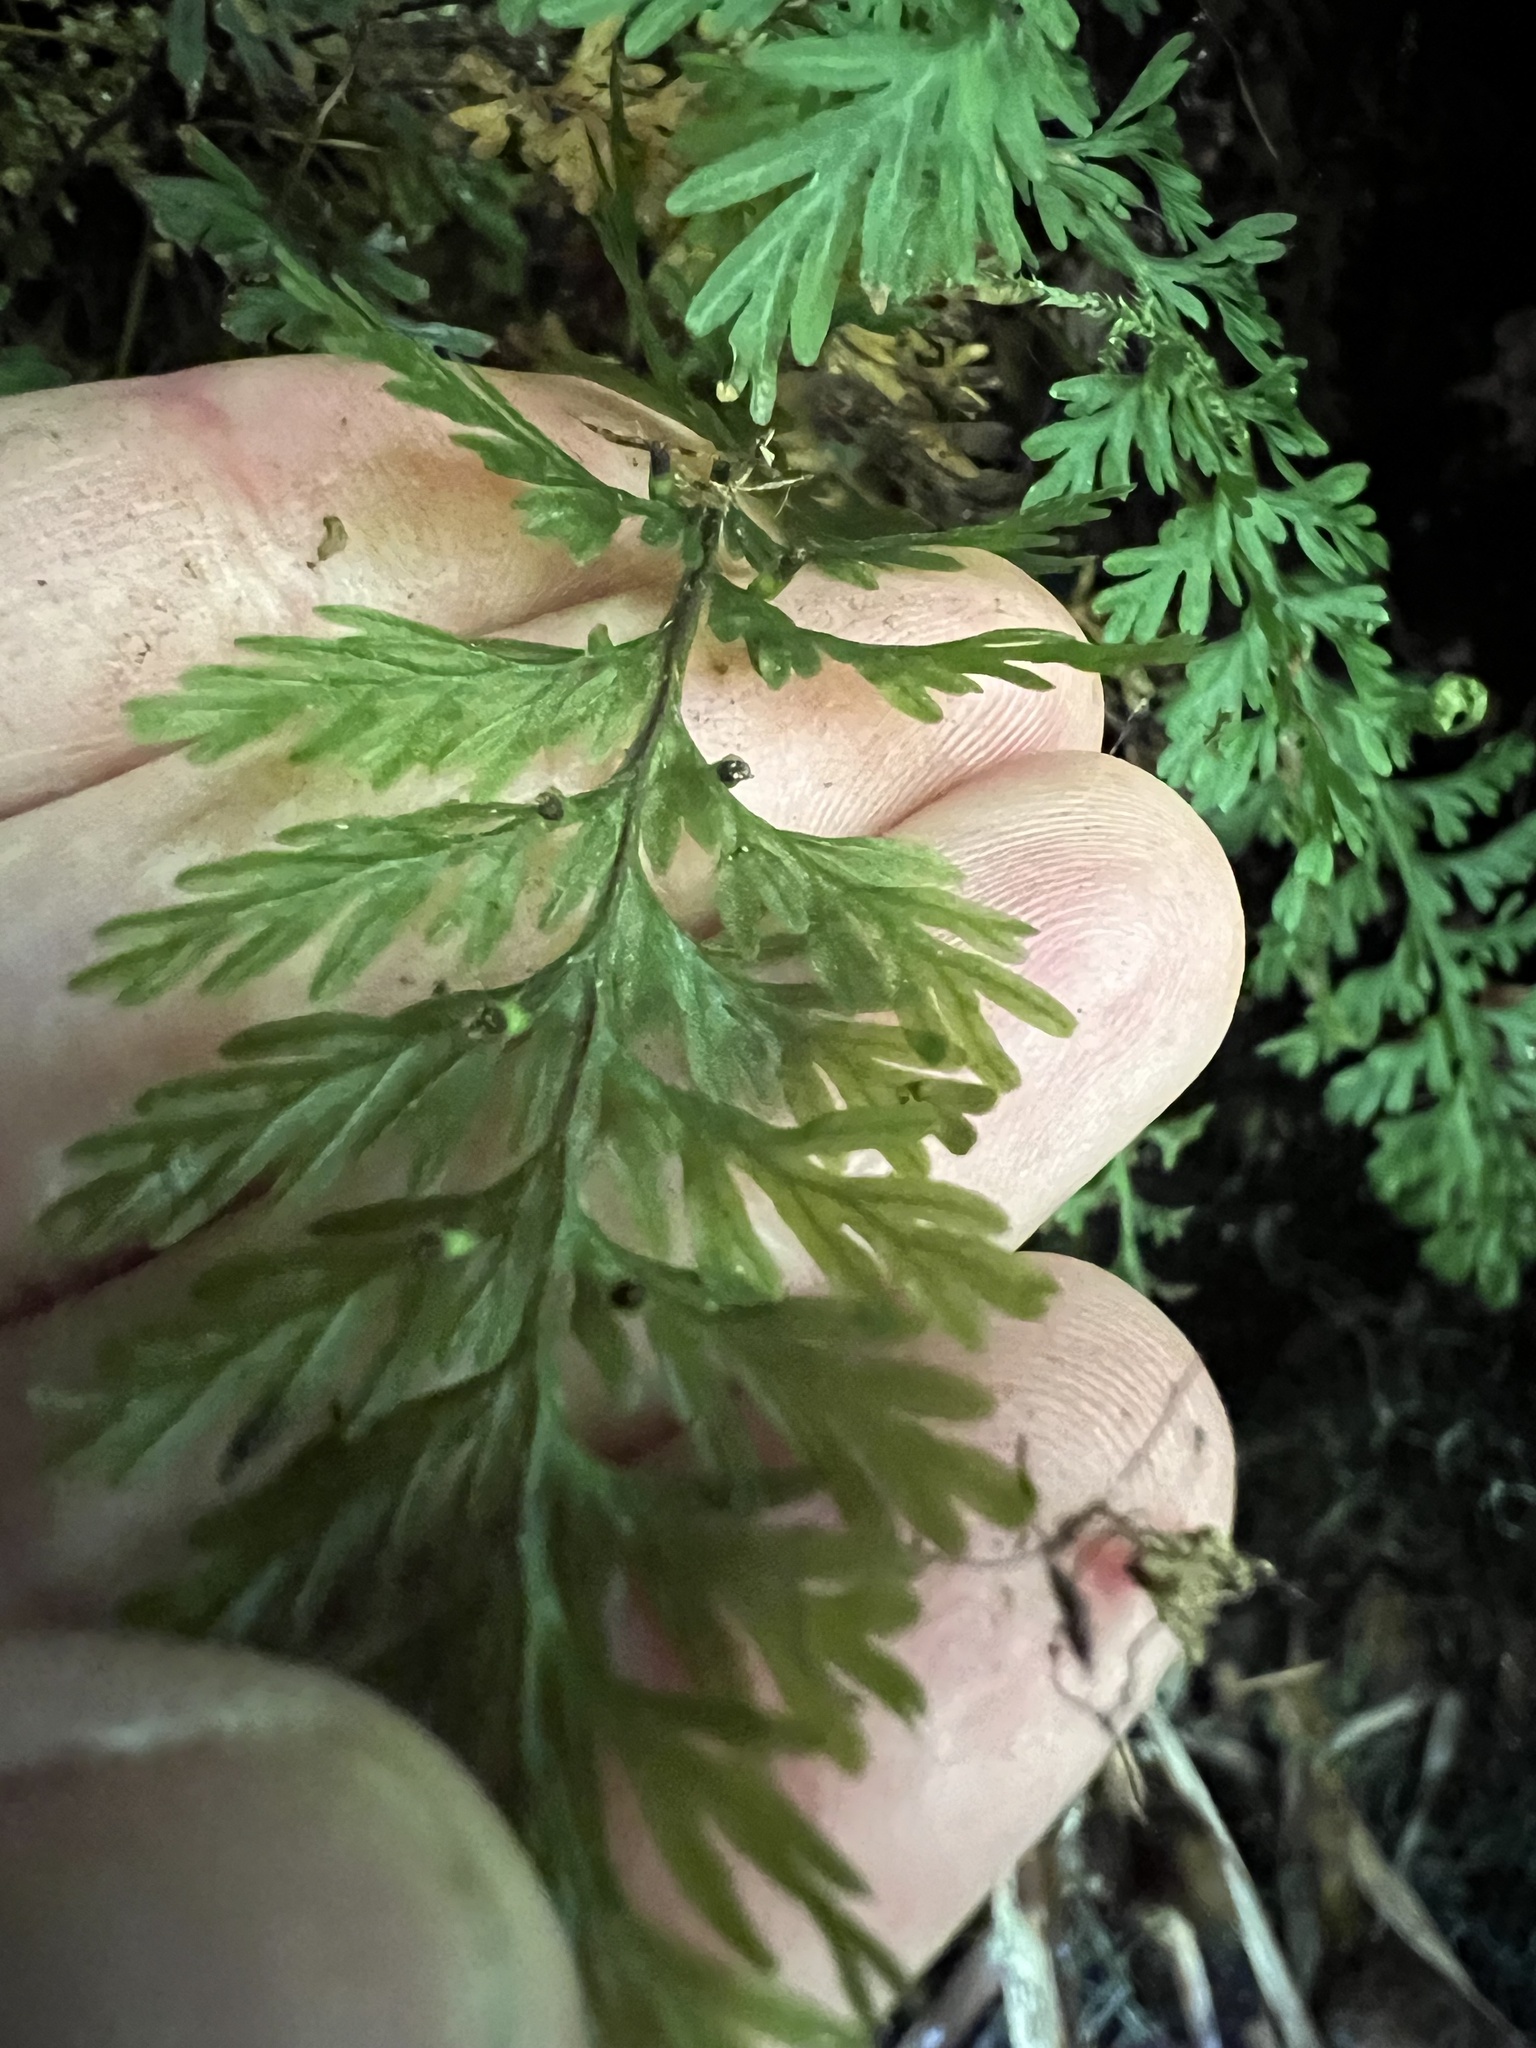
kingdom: Plantae
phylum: Tracheophyta
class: Polypodiopsida
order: Hymenophyllales
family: Hymenophyllaceae
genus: Abrodictyum
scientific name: Abrodictyum strictum
